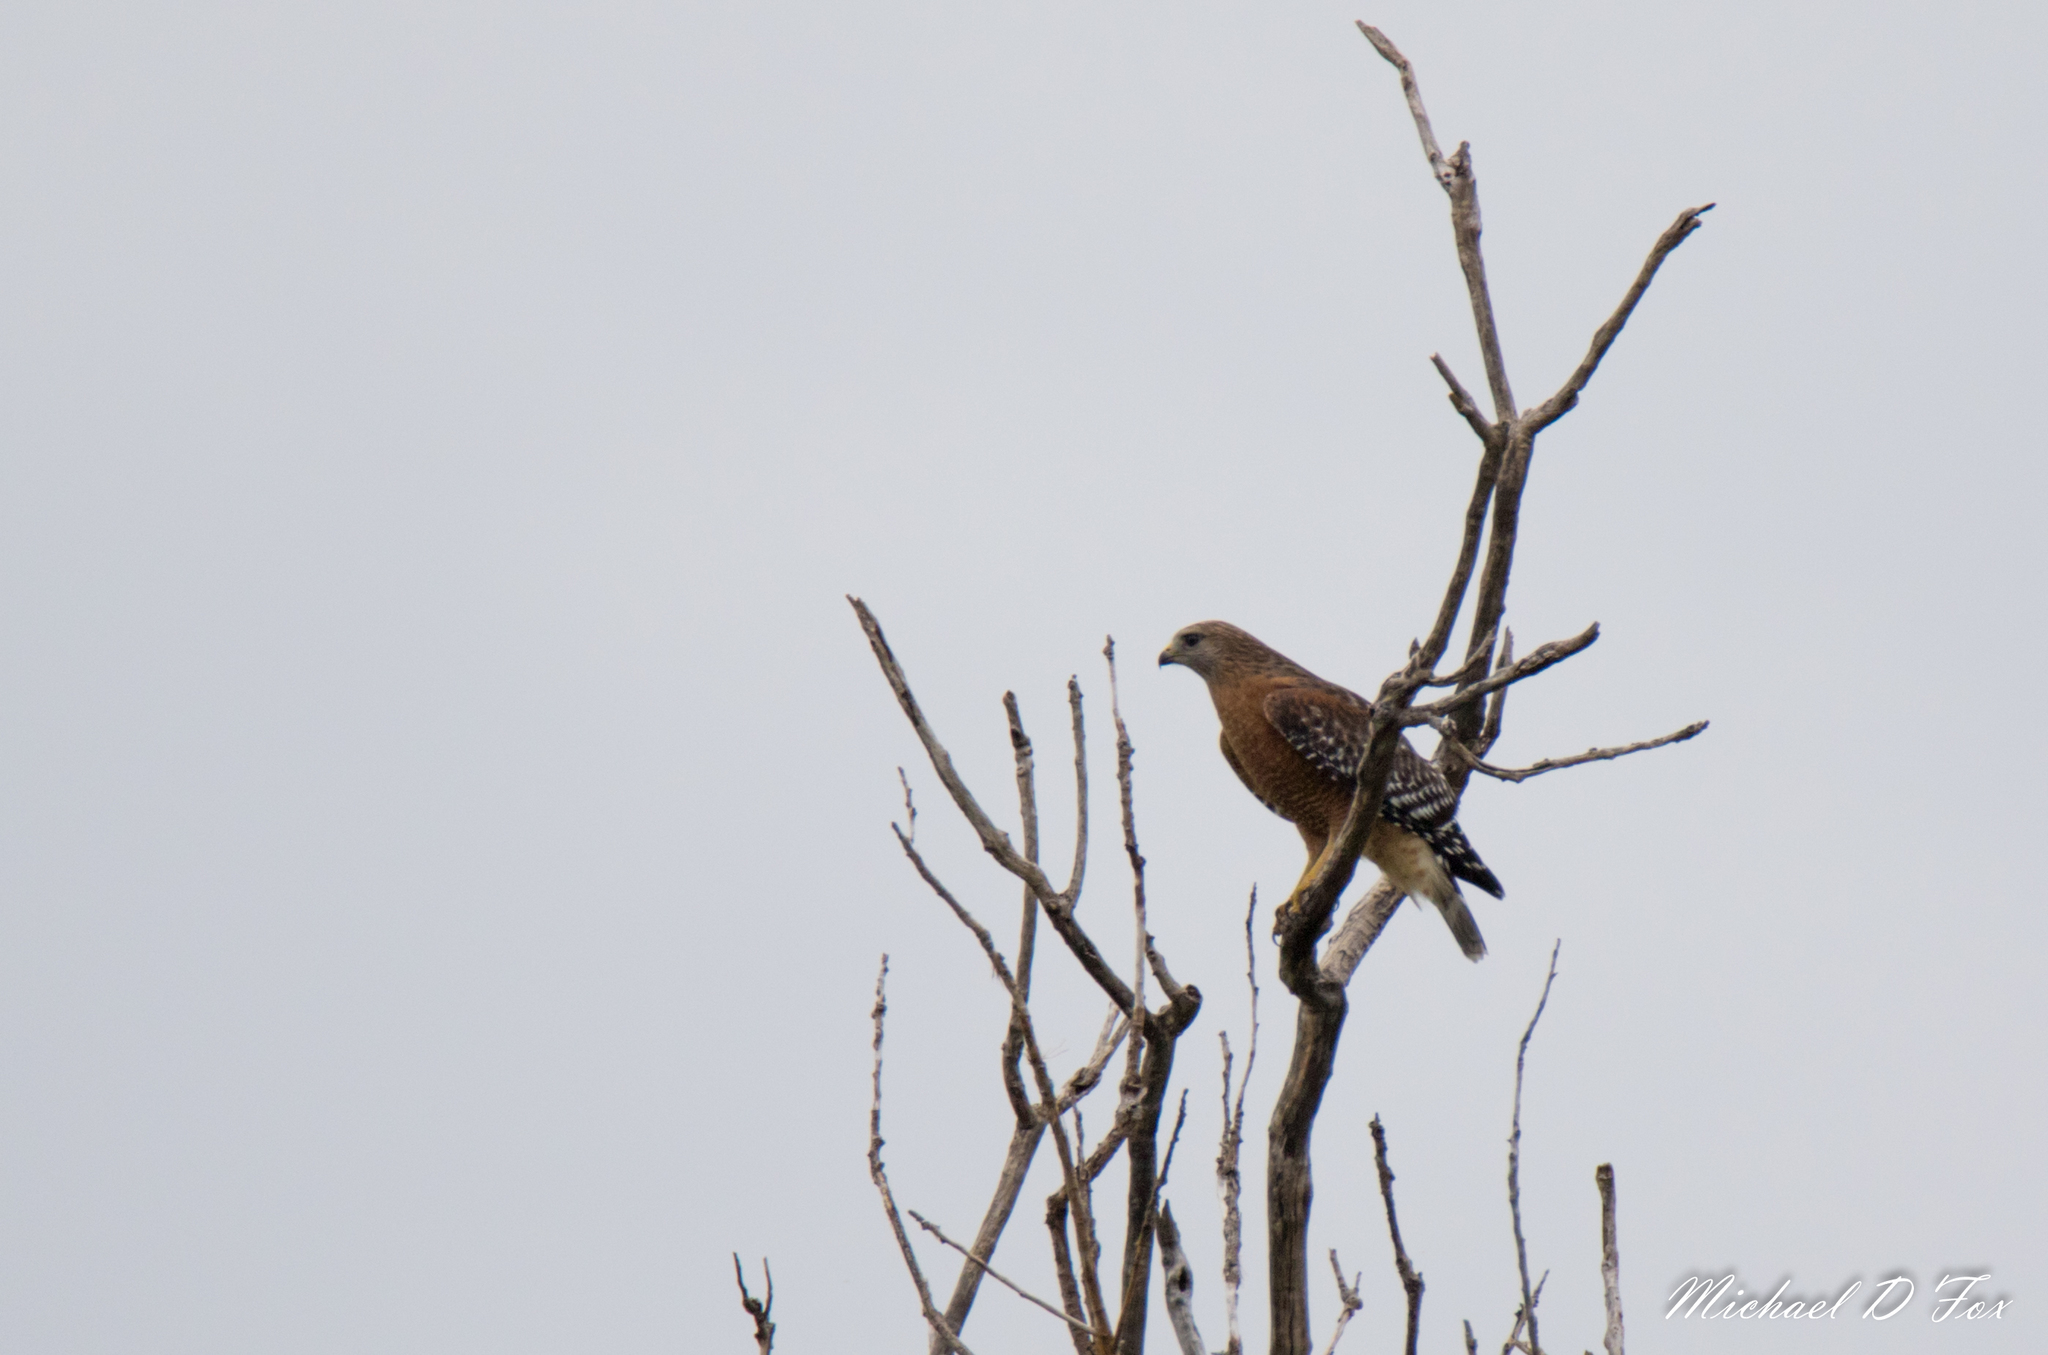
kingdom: Animalia
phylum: Chordata
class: Aves
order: Accipitriformes
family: Accipitridae
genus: Buteo
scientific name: Buteo lineatus
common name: Red-shouldered hawk
